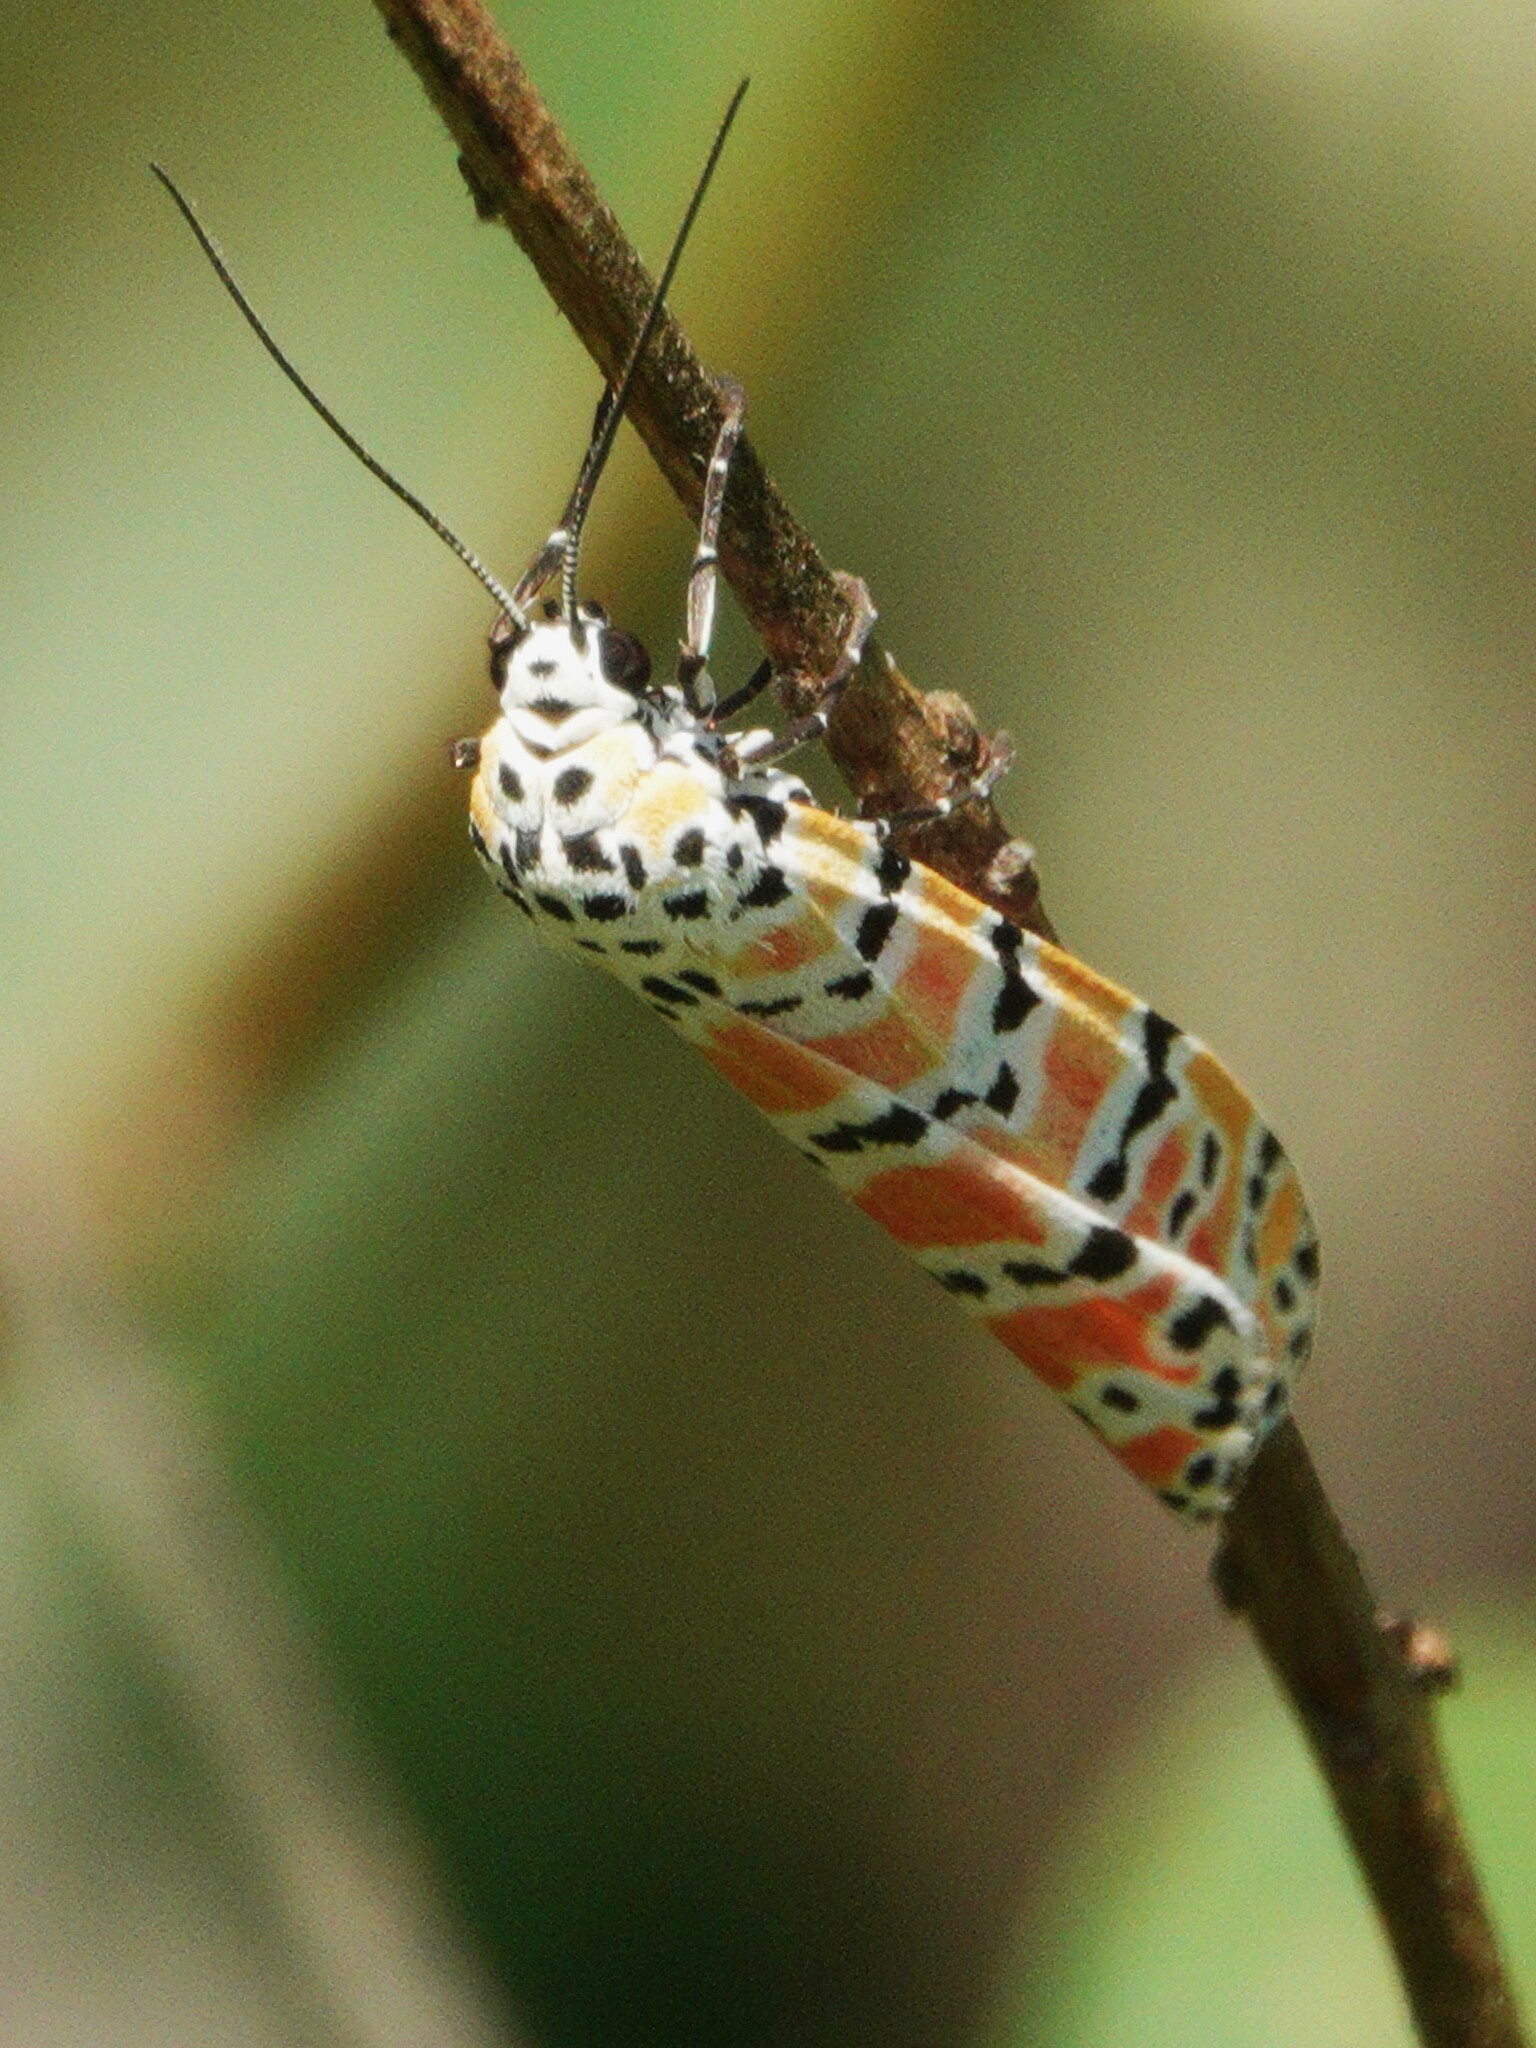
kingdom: Animalia
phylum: Arthropoda
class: Insecta
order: Lepidoptera
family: Erebidae
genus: Utetheisa
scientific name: Utetheisa ornatrix
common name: Beautiful utetheisa
